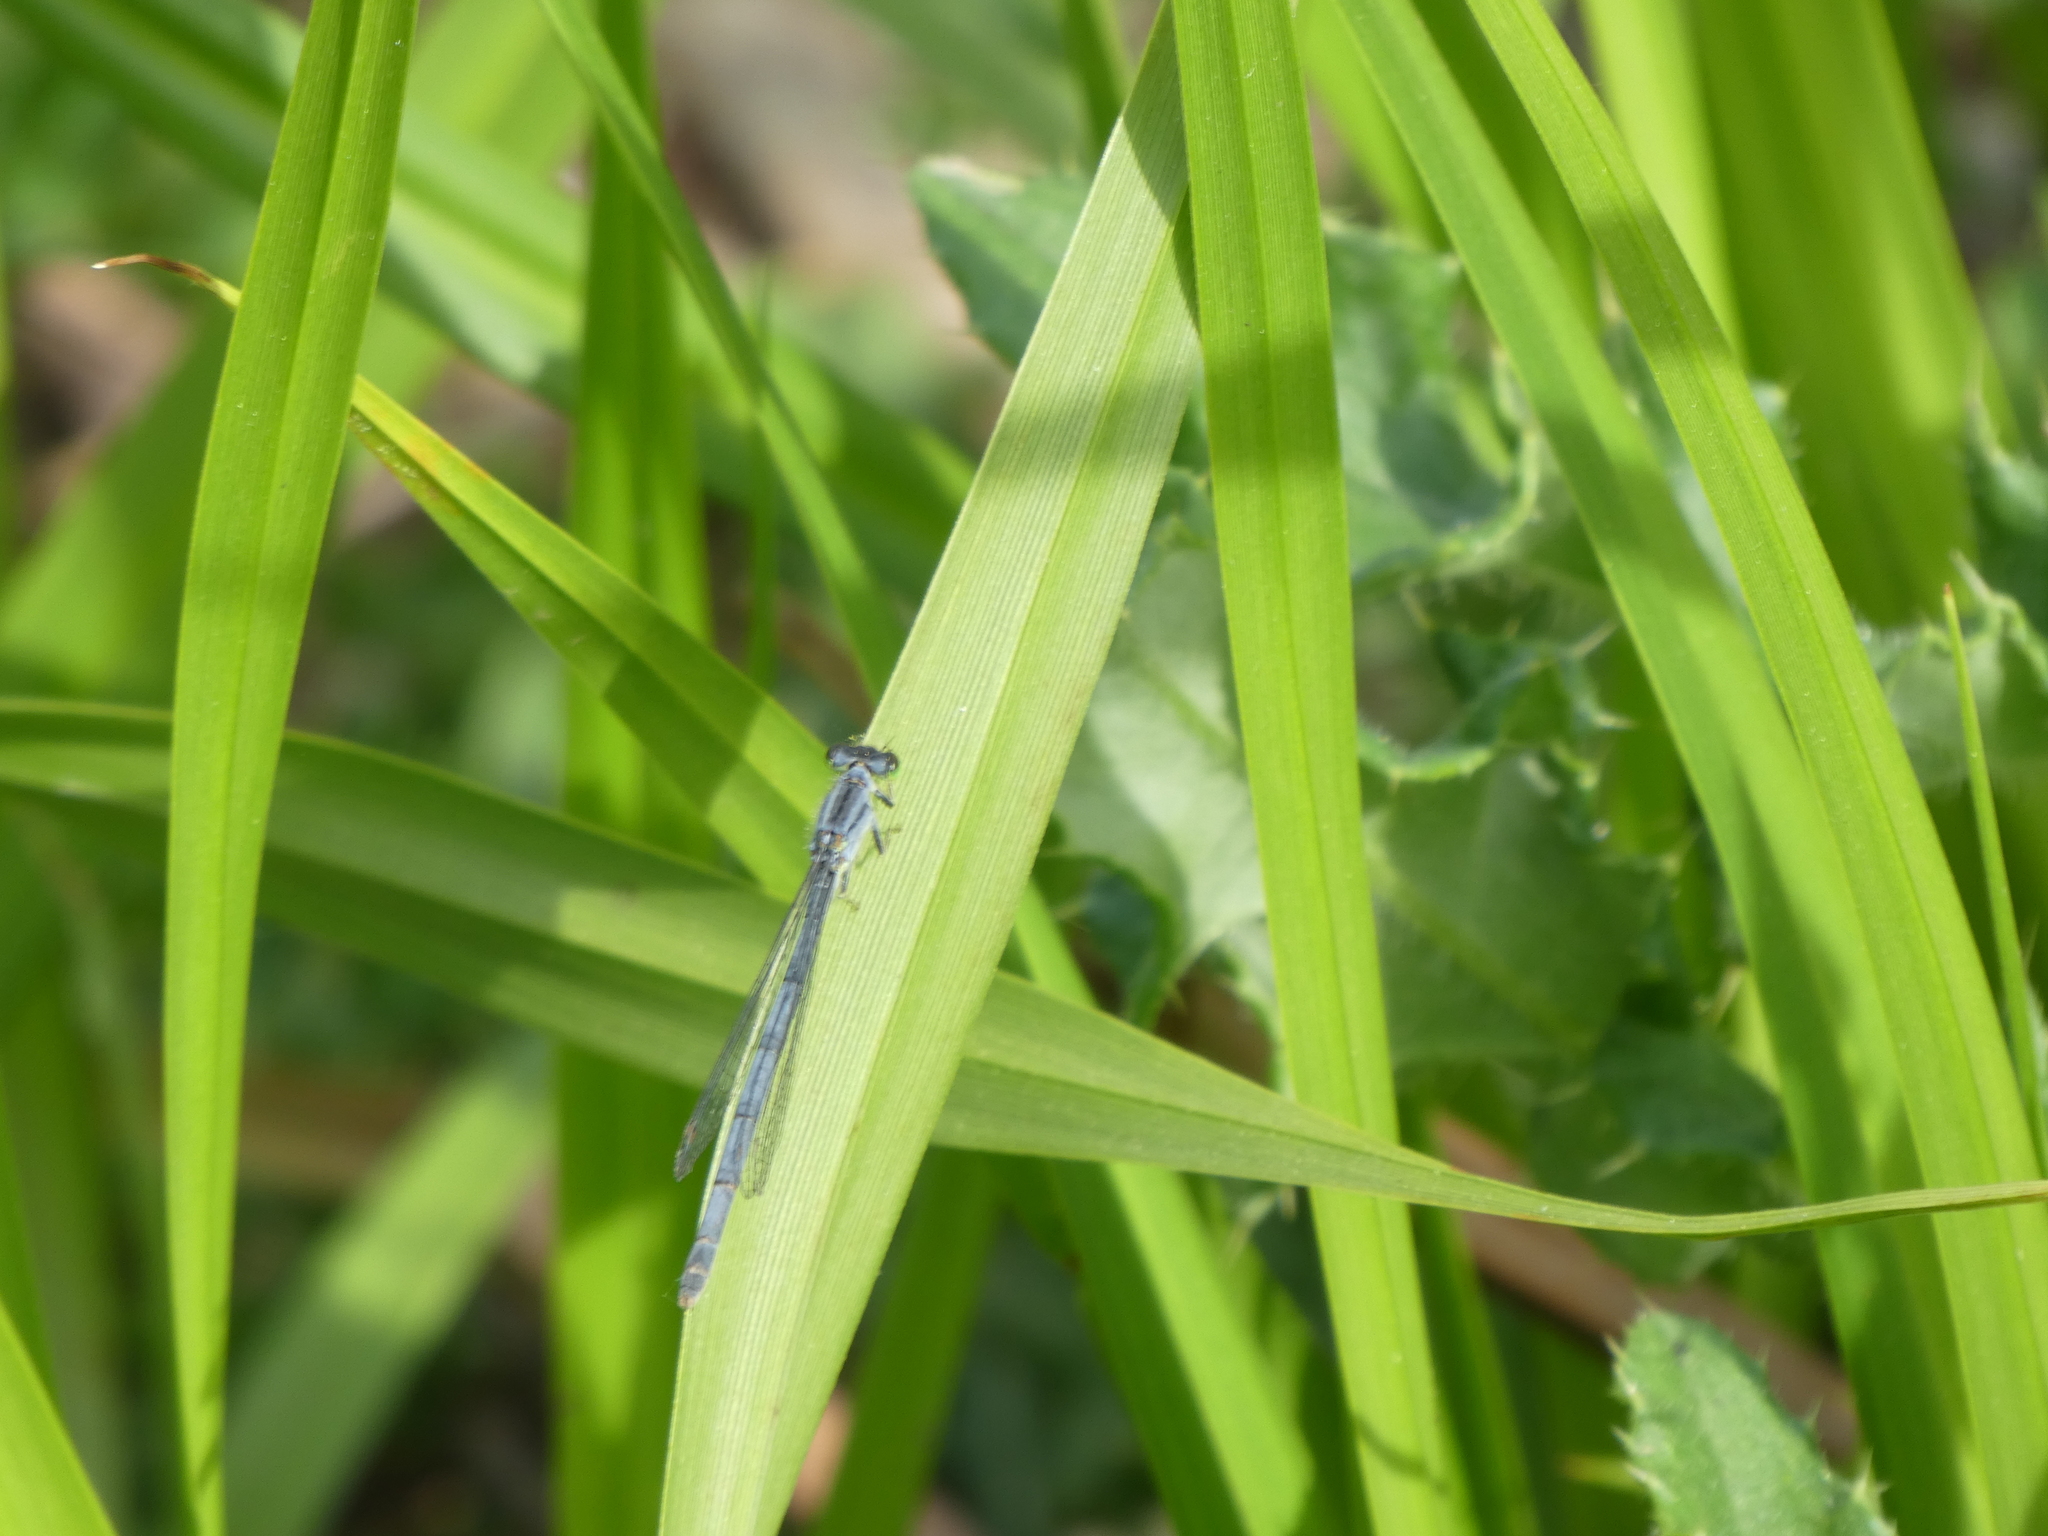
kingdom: Animalia
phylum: Arthropoda
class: Insecta
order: Odonata
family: Coenagrionidae
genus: Ischnura
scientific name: Ischnura verticalis
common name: Eastern forktail
